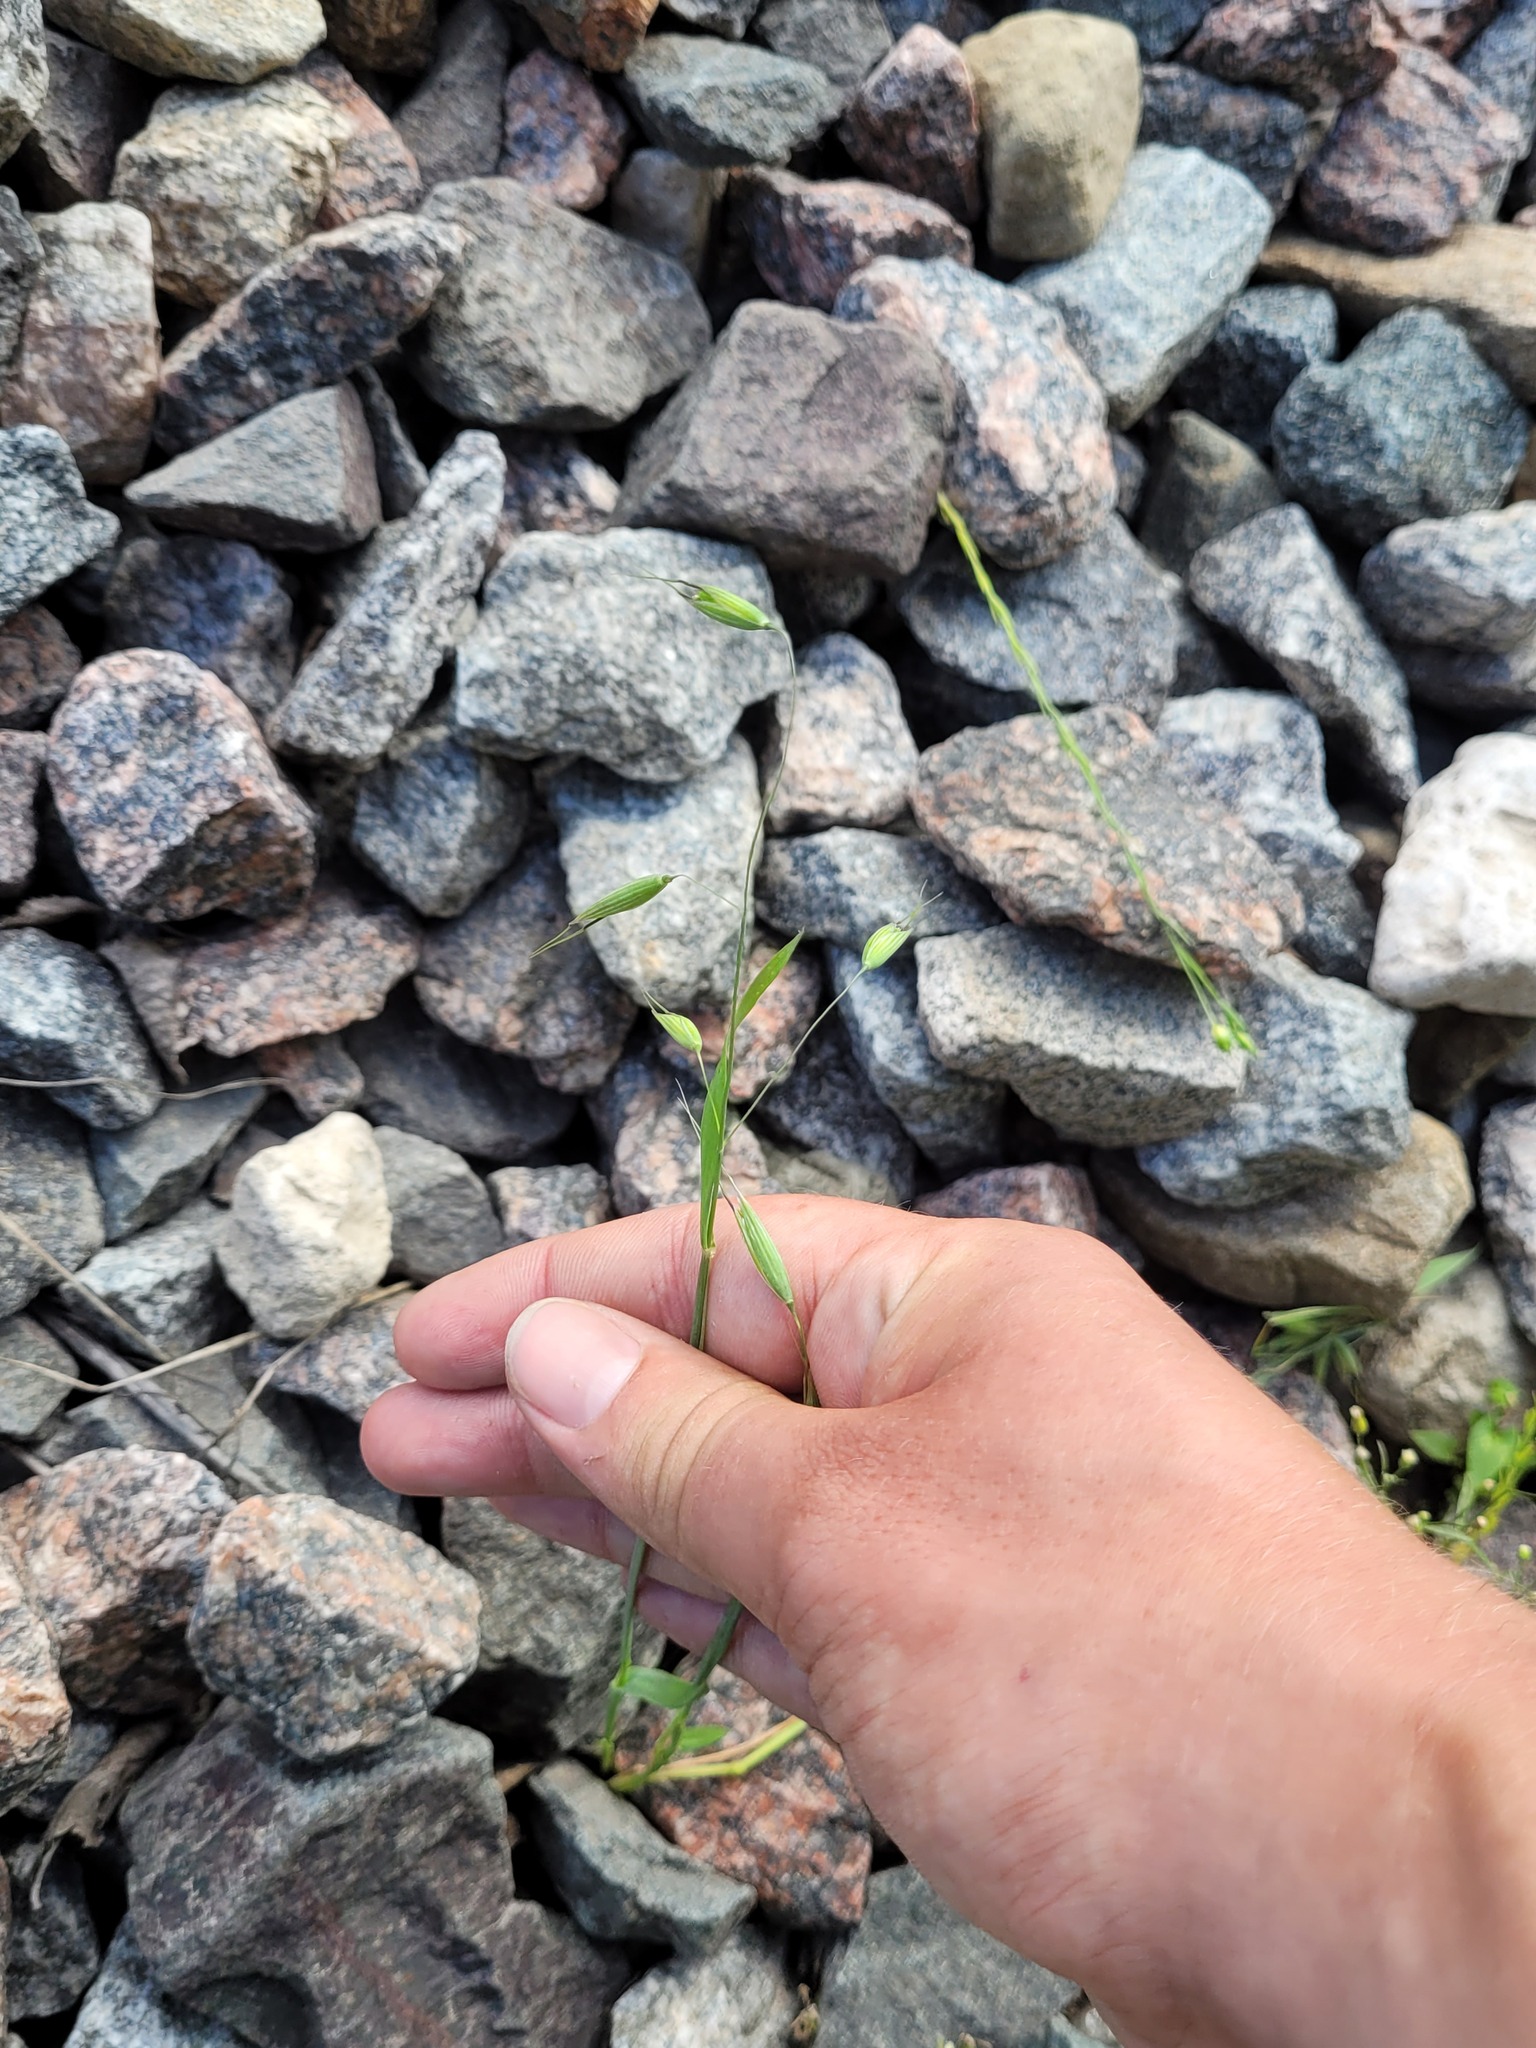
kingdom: Plantae
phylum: Tracheophyta
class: Liliopsida
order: Poales
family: Poaceae
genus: Avena
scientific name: Avena fatua
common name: Wild oat
